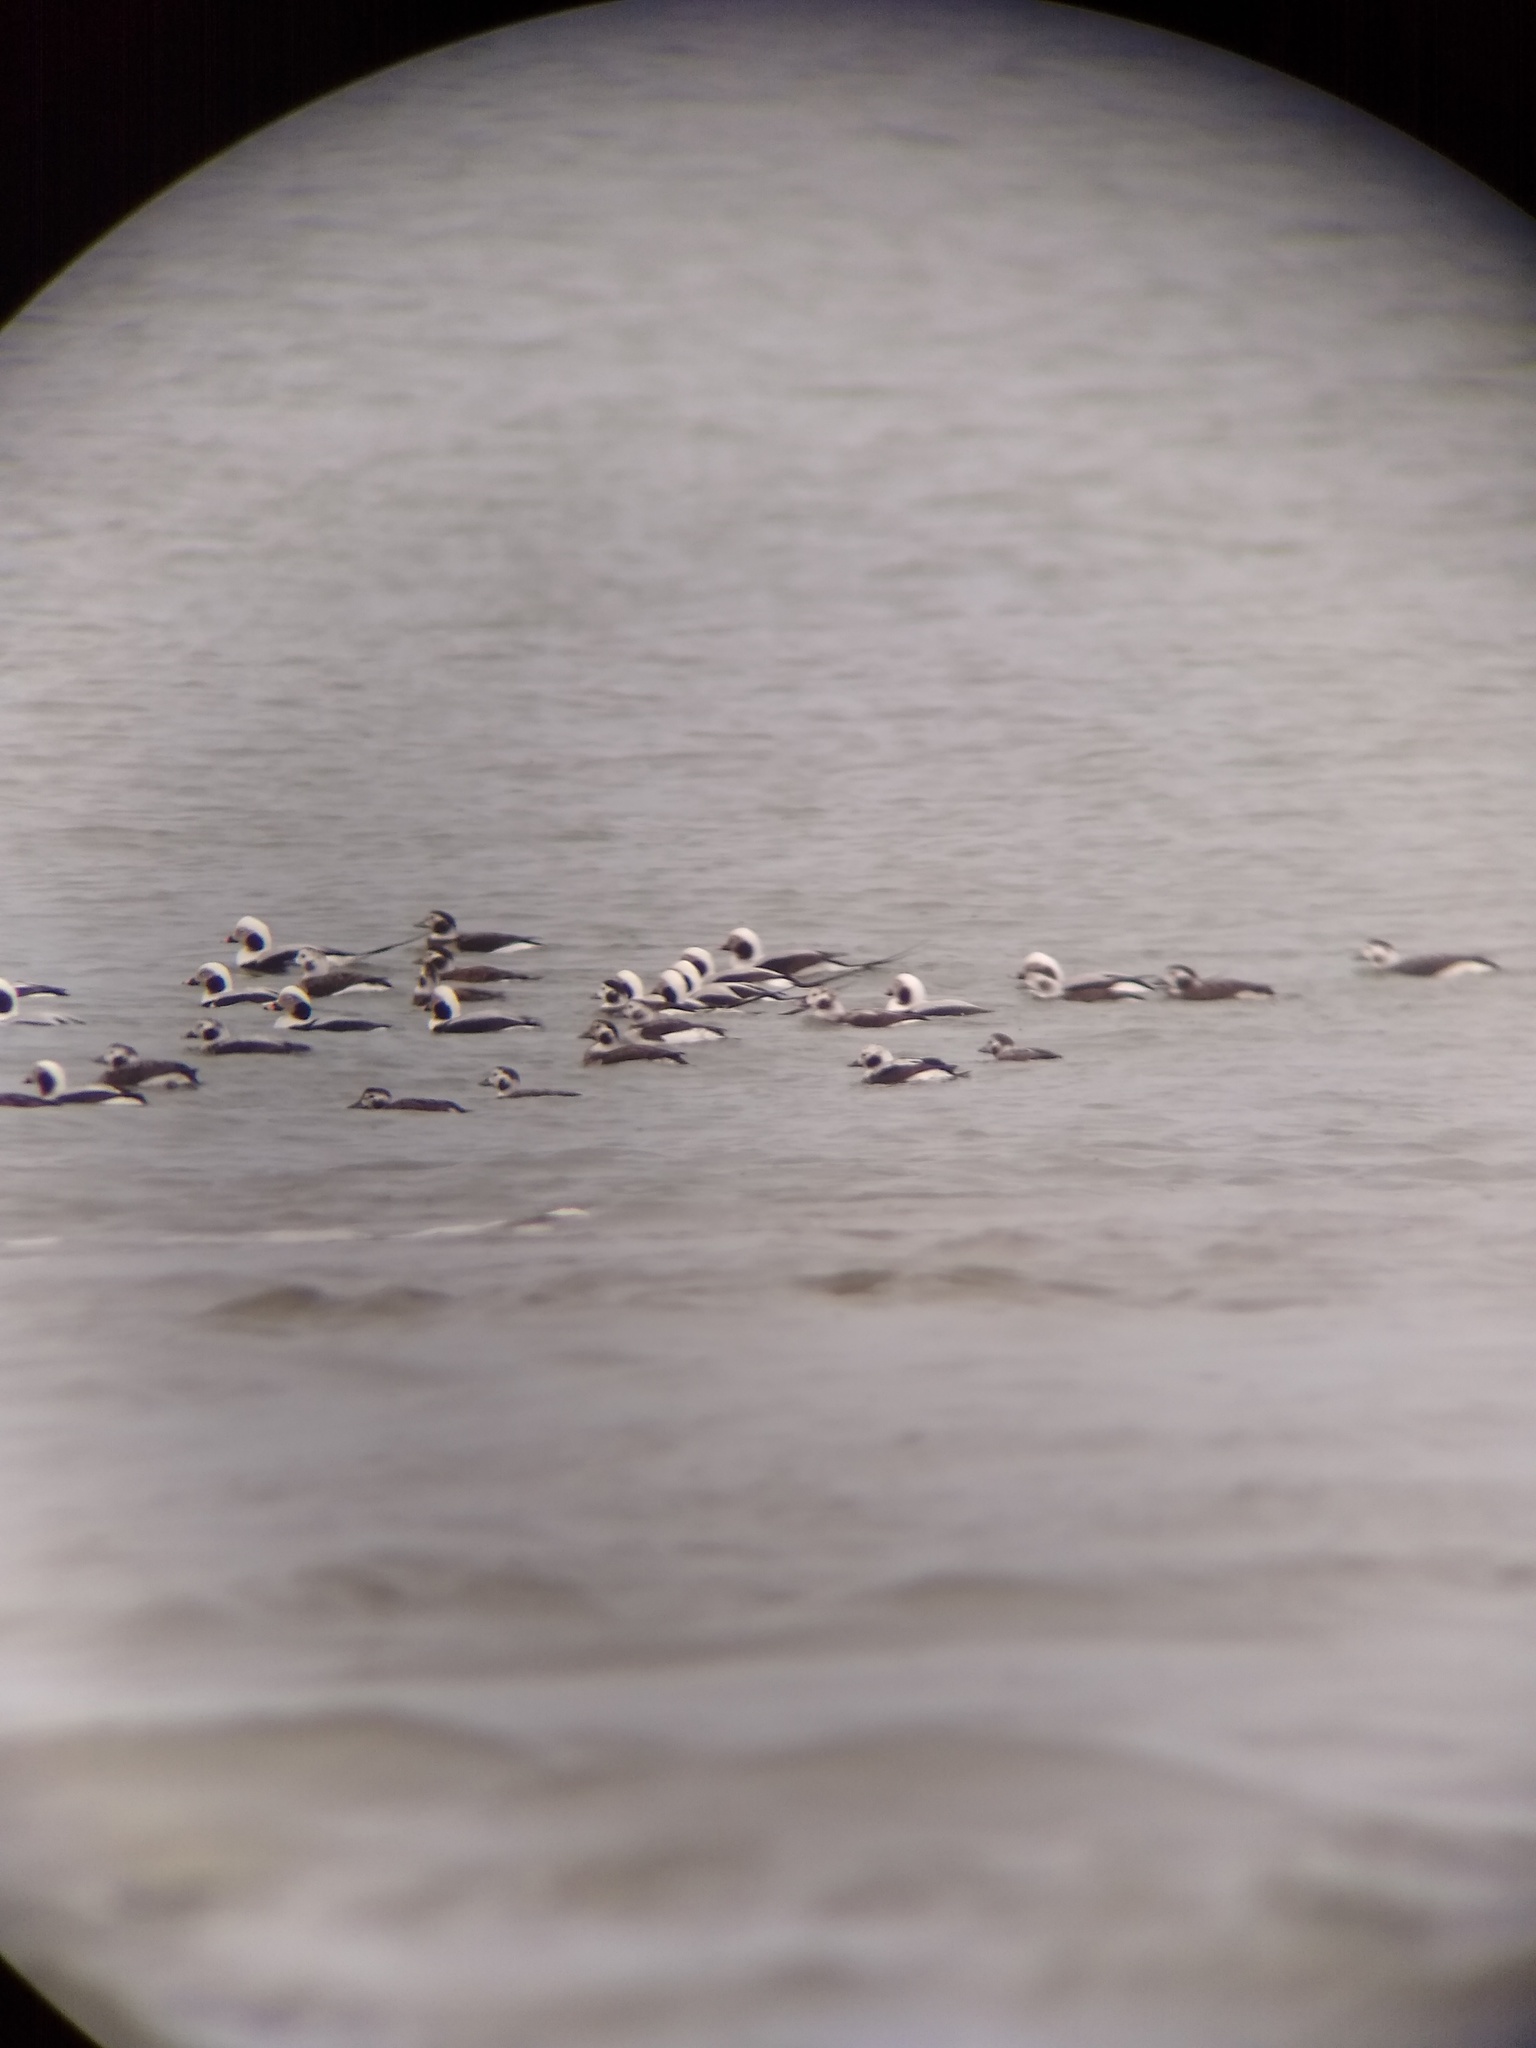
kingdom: Animalia
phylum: Chordata
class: Aves
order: Anseriformes
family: Anatidae
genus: Clangula
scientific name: Clangula hyemalis
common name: Long-tailed duck
